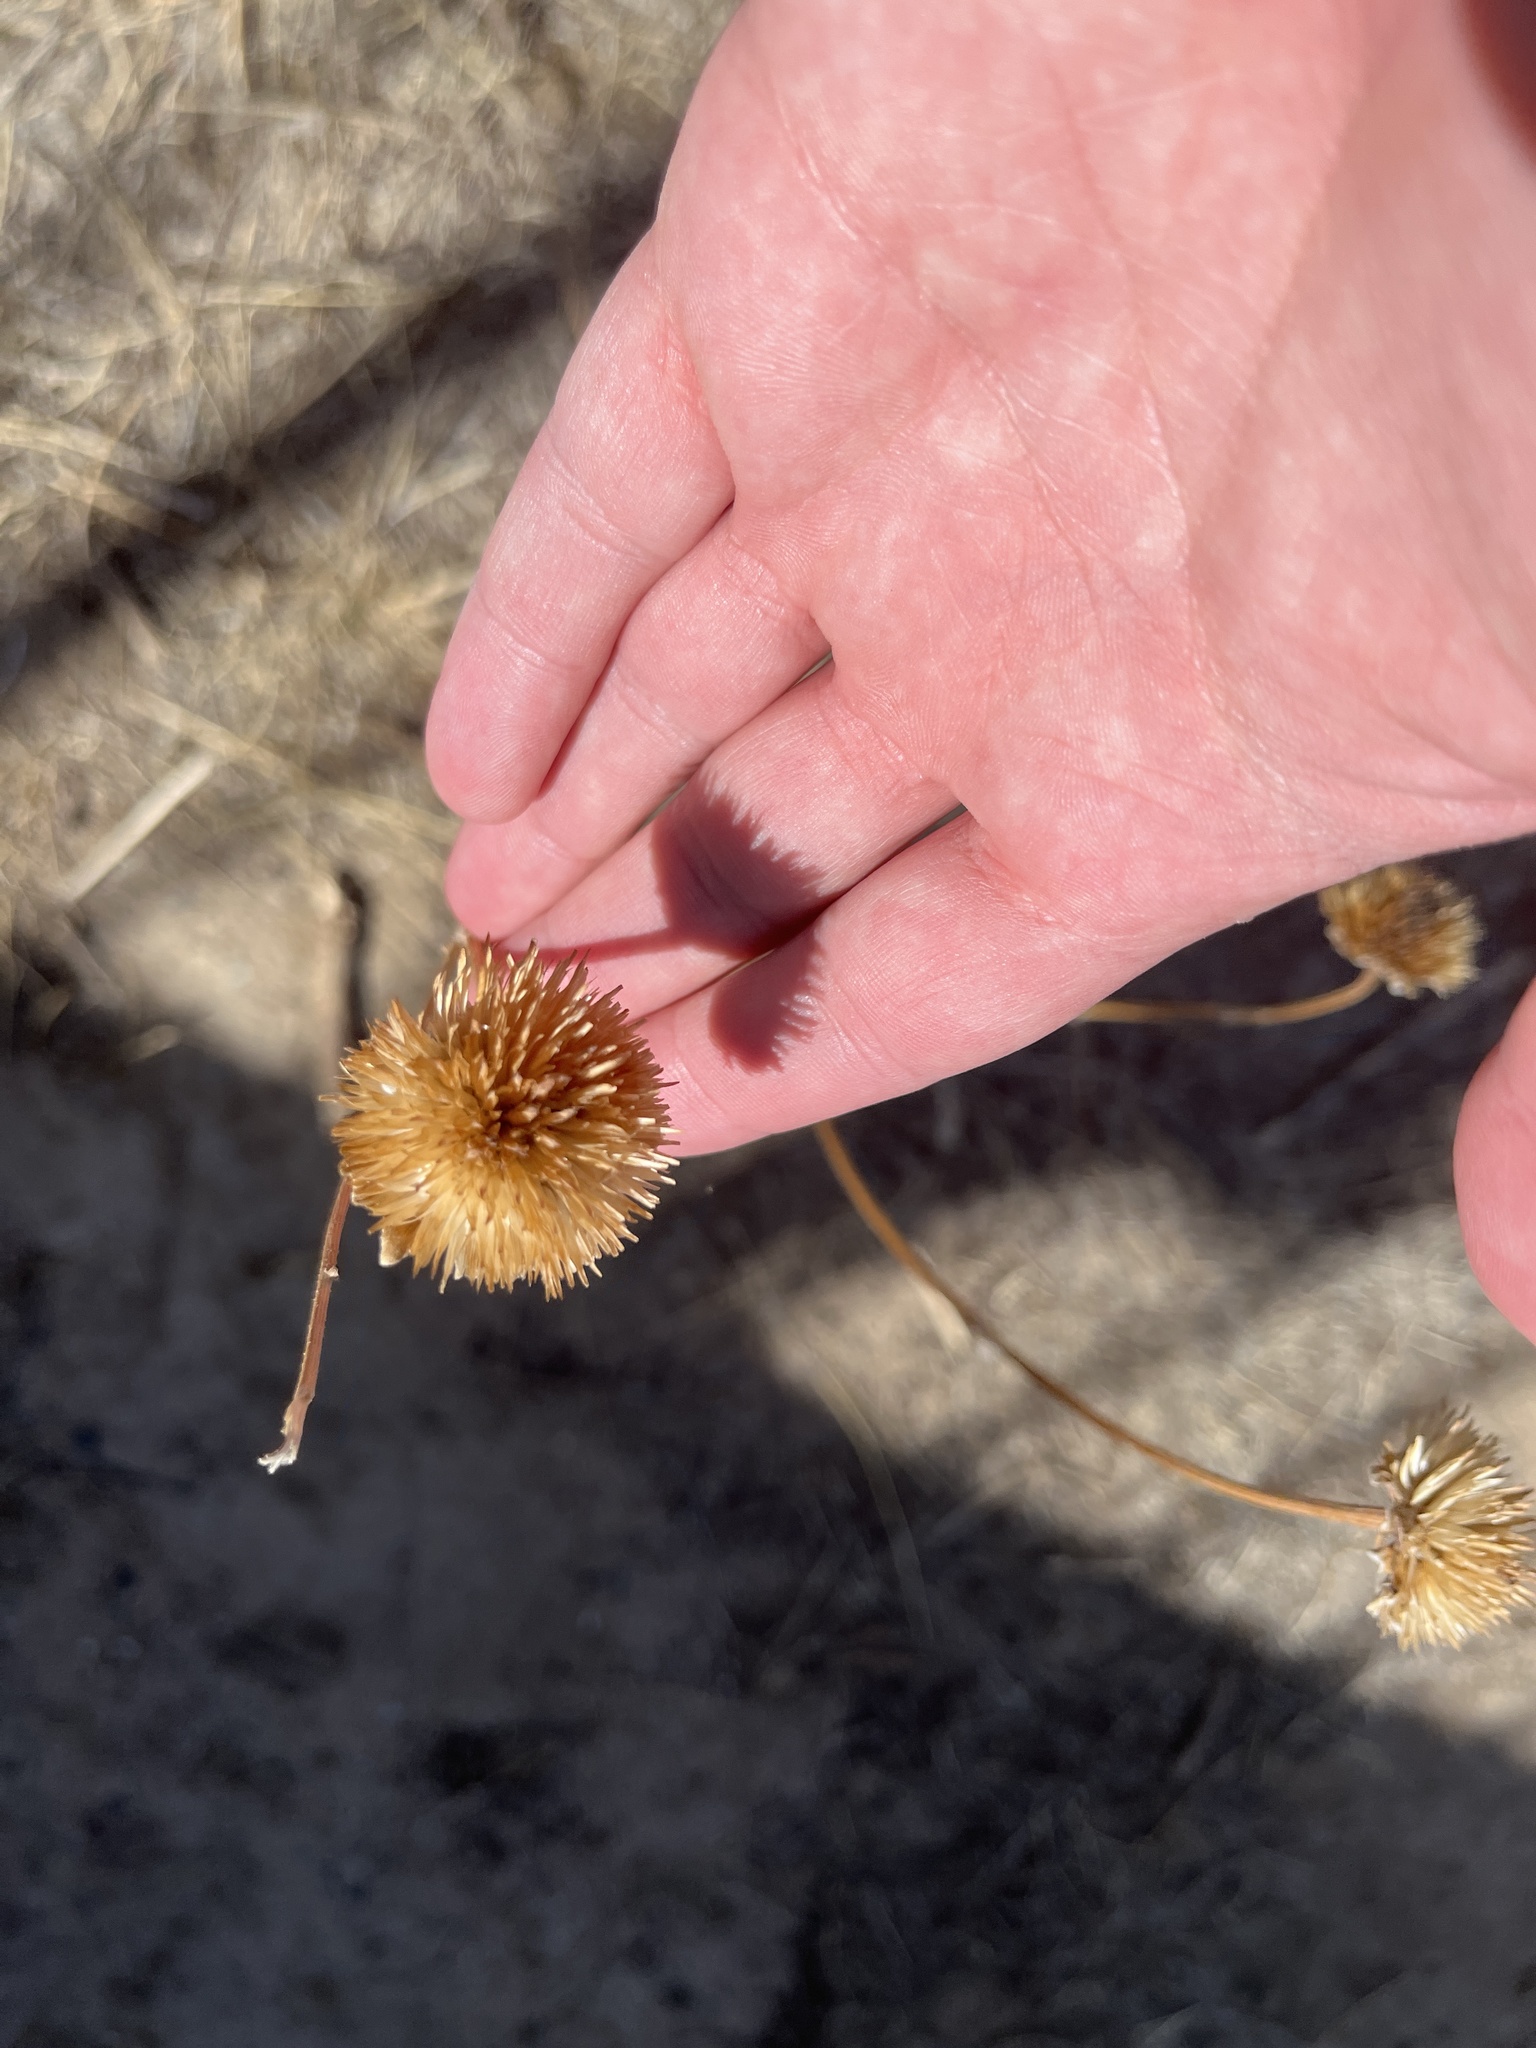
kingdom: Plantae
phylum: Tracheophyta
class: Magnoliopsida
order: Asterales
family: Asteraceae
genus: Helianthus
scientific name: Helianthus annuus
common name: Sunflower
